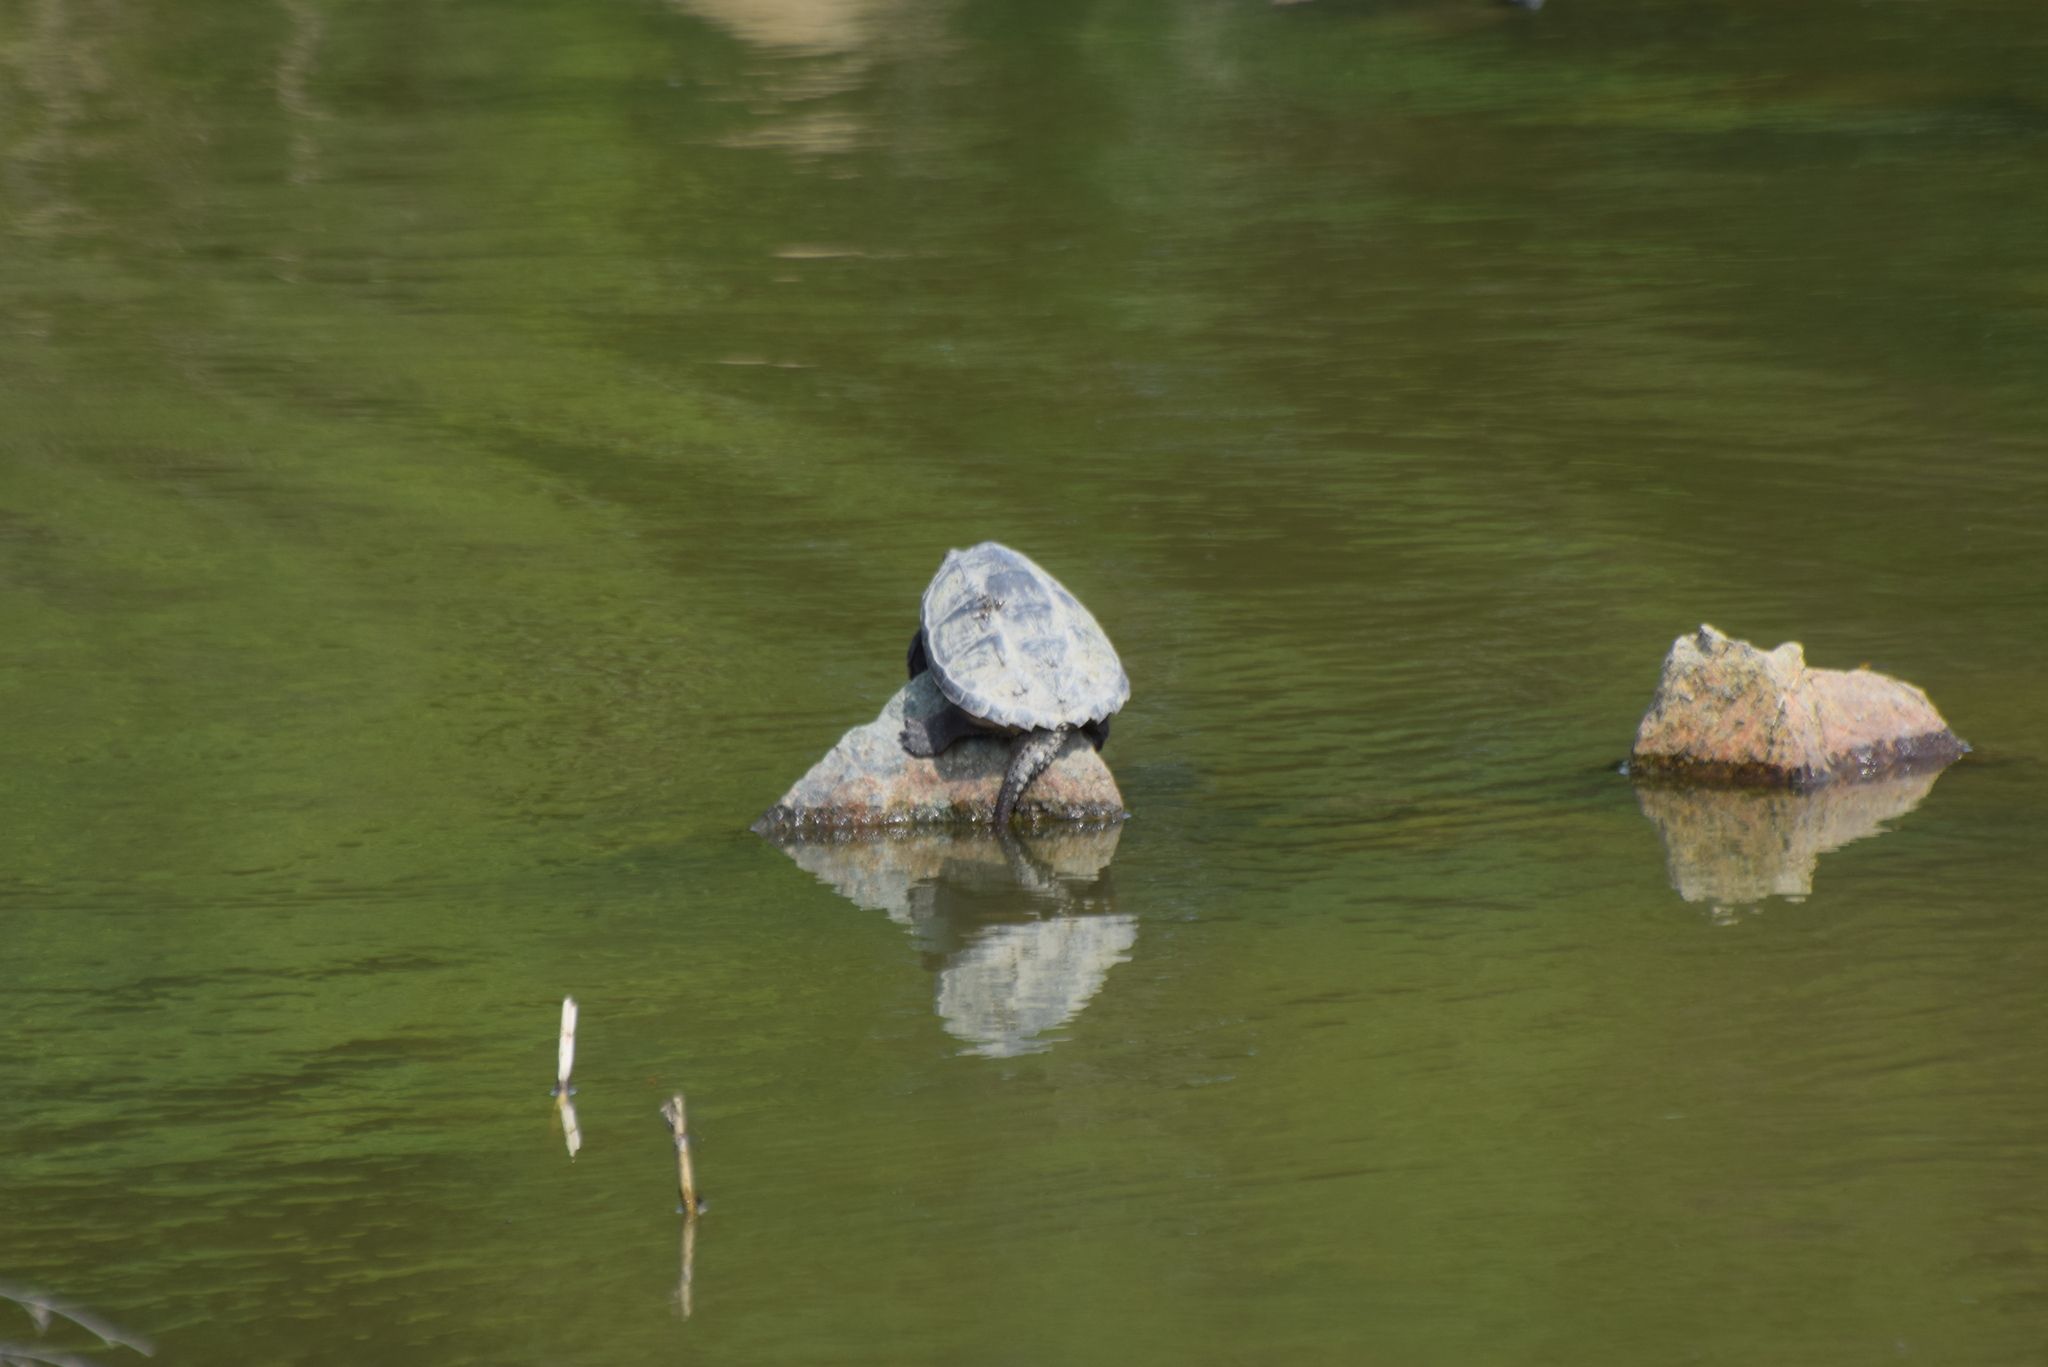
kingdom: Animalia
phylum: Chordata
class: Testudines
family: Chelydridae
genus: Chelydra
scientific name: Chelydra serpentina
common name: Common snapping turtle
